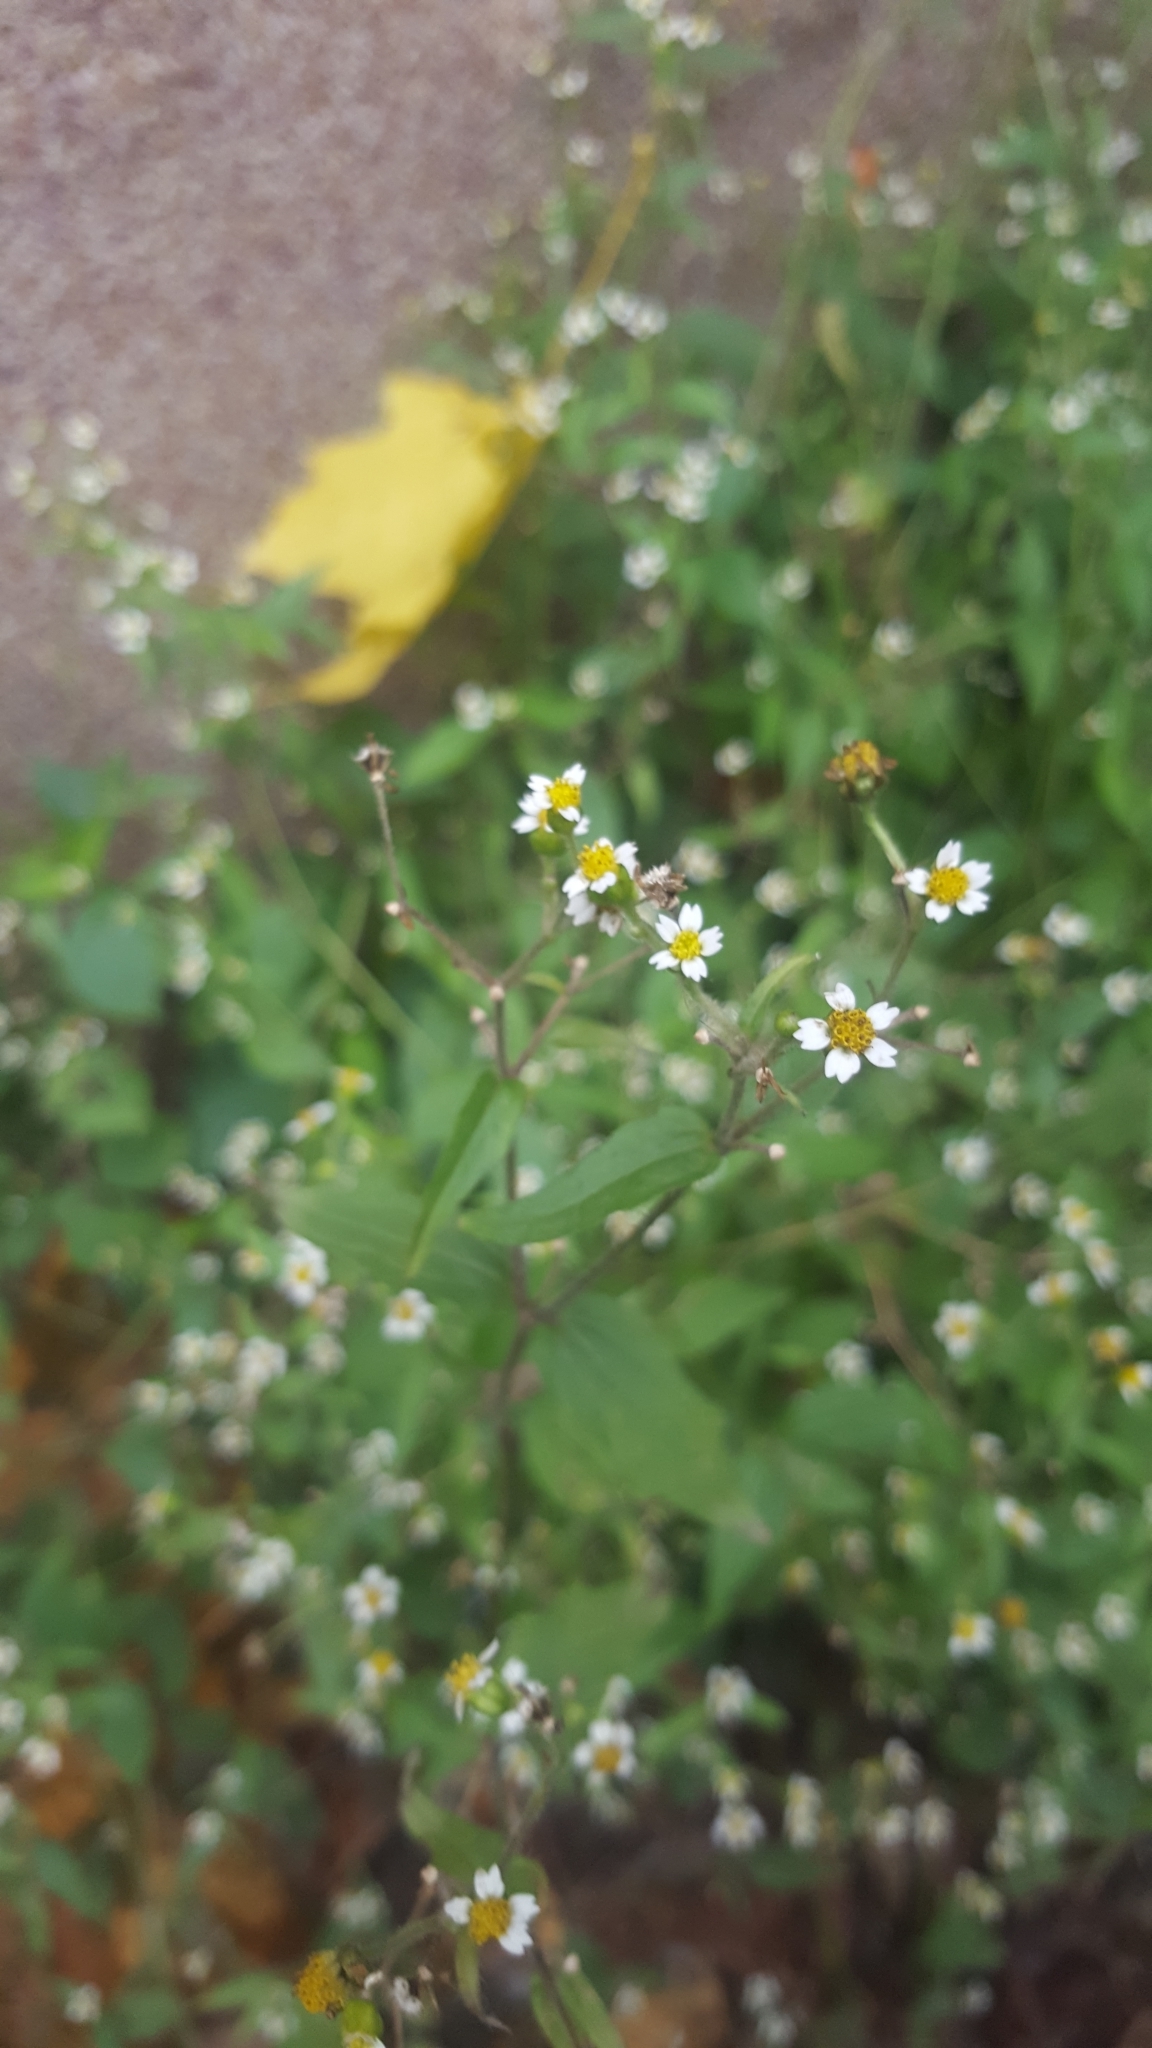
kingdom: Plantae
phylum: Tracheophyta
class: Magnoliopsida
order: Asterales
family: Asteraceae
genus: Galinsoga
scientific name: Galinsoga quadriradiata
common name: Shaggy soldier
